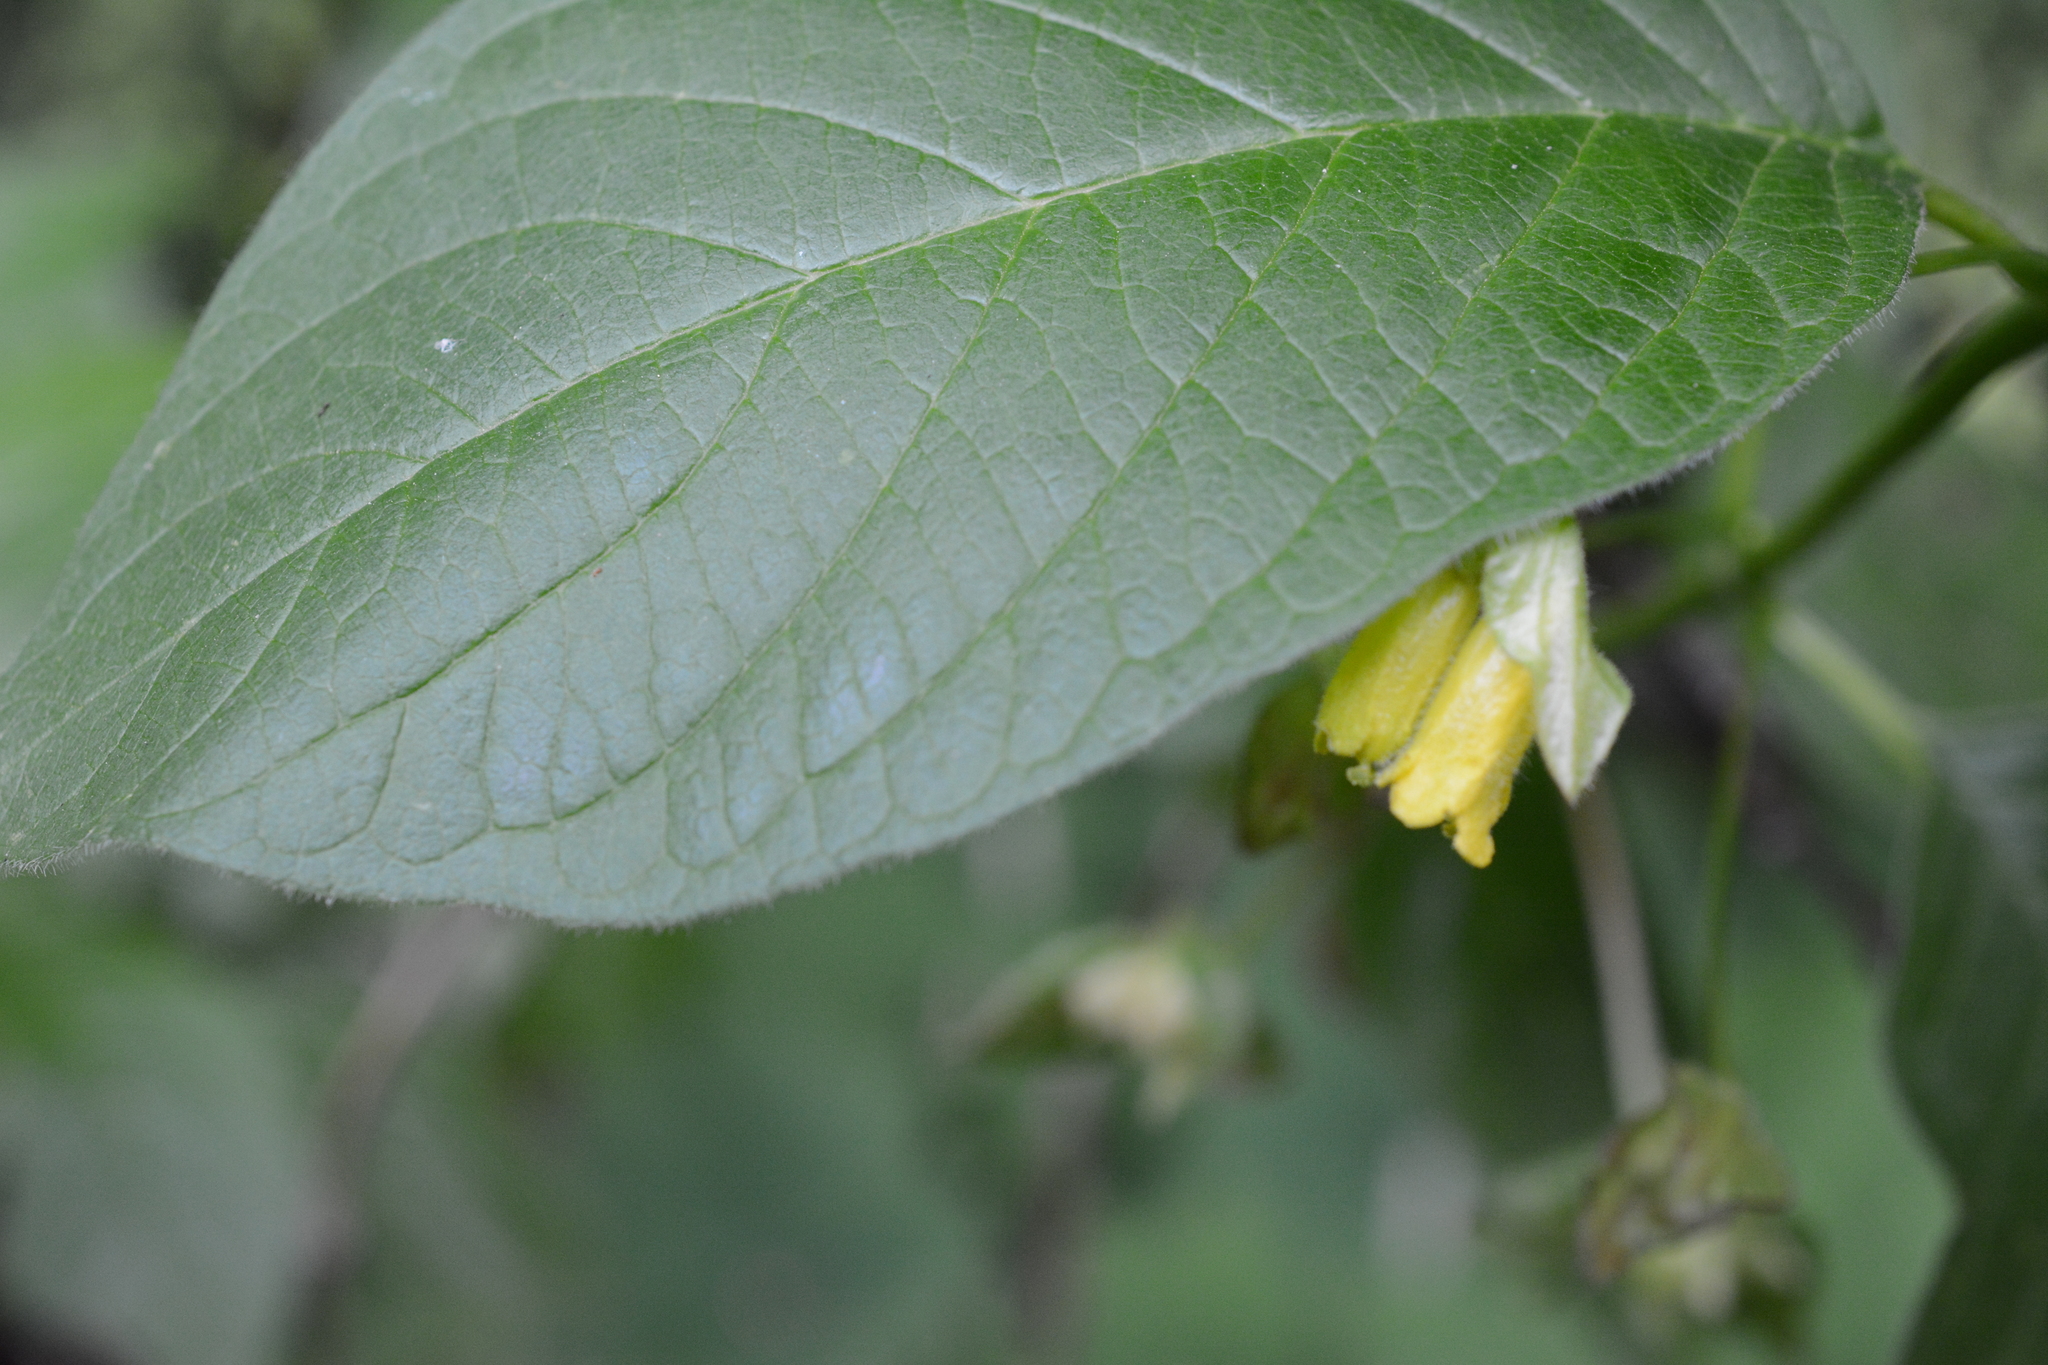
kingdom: Plantae
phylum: Tracheophyta
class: Magnoliopsida
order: Dipsacales
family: Caprifoliaceae
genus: Lonicera
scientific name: Lonicera involucrata
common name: Californian honeysuckle
